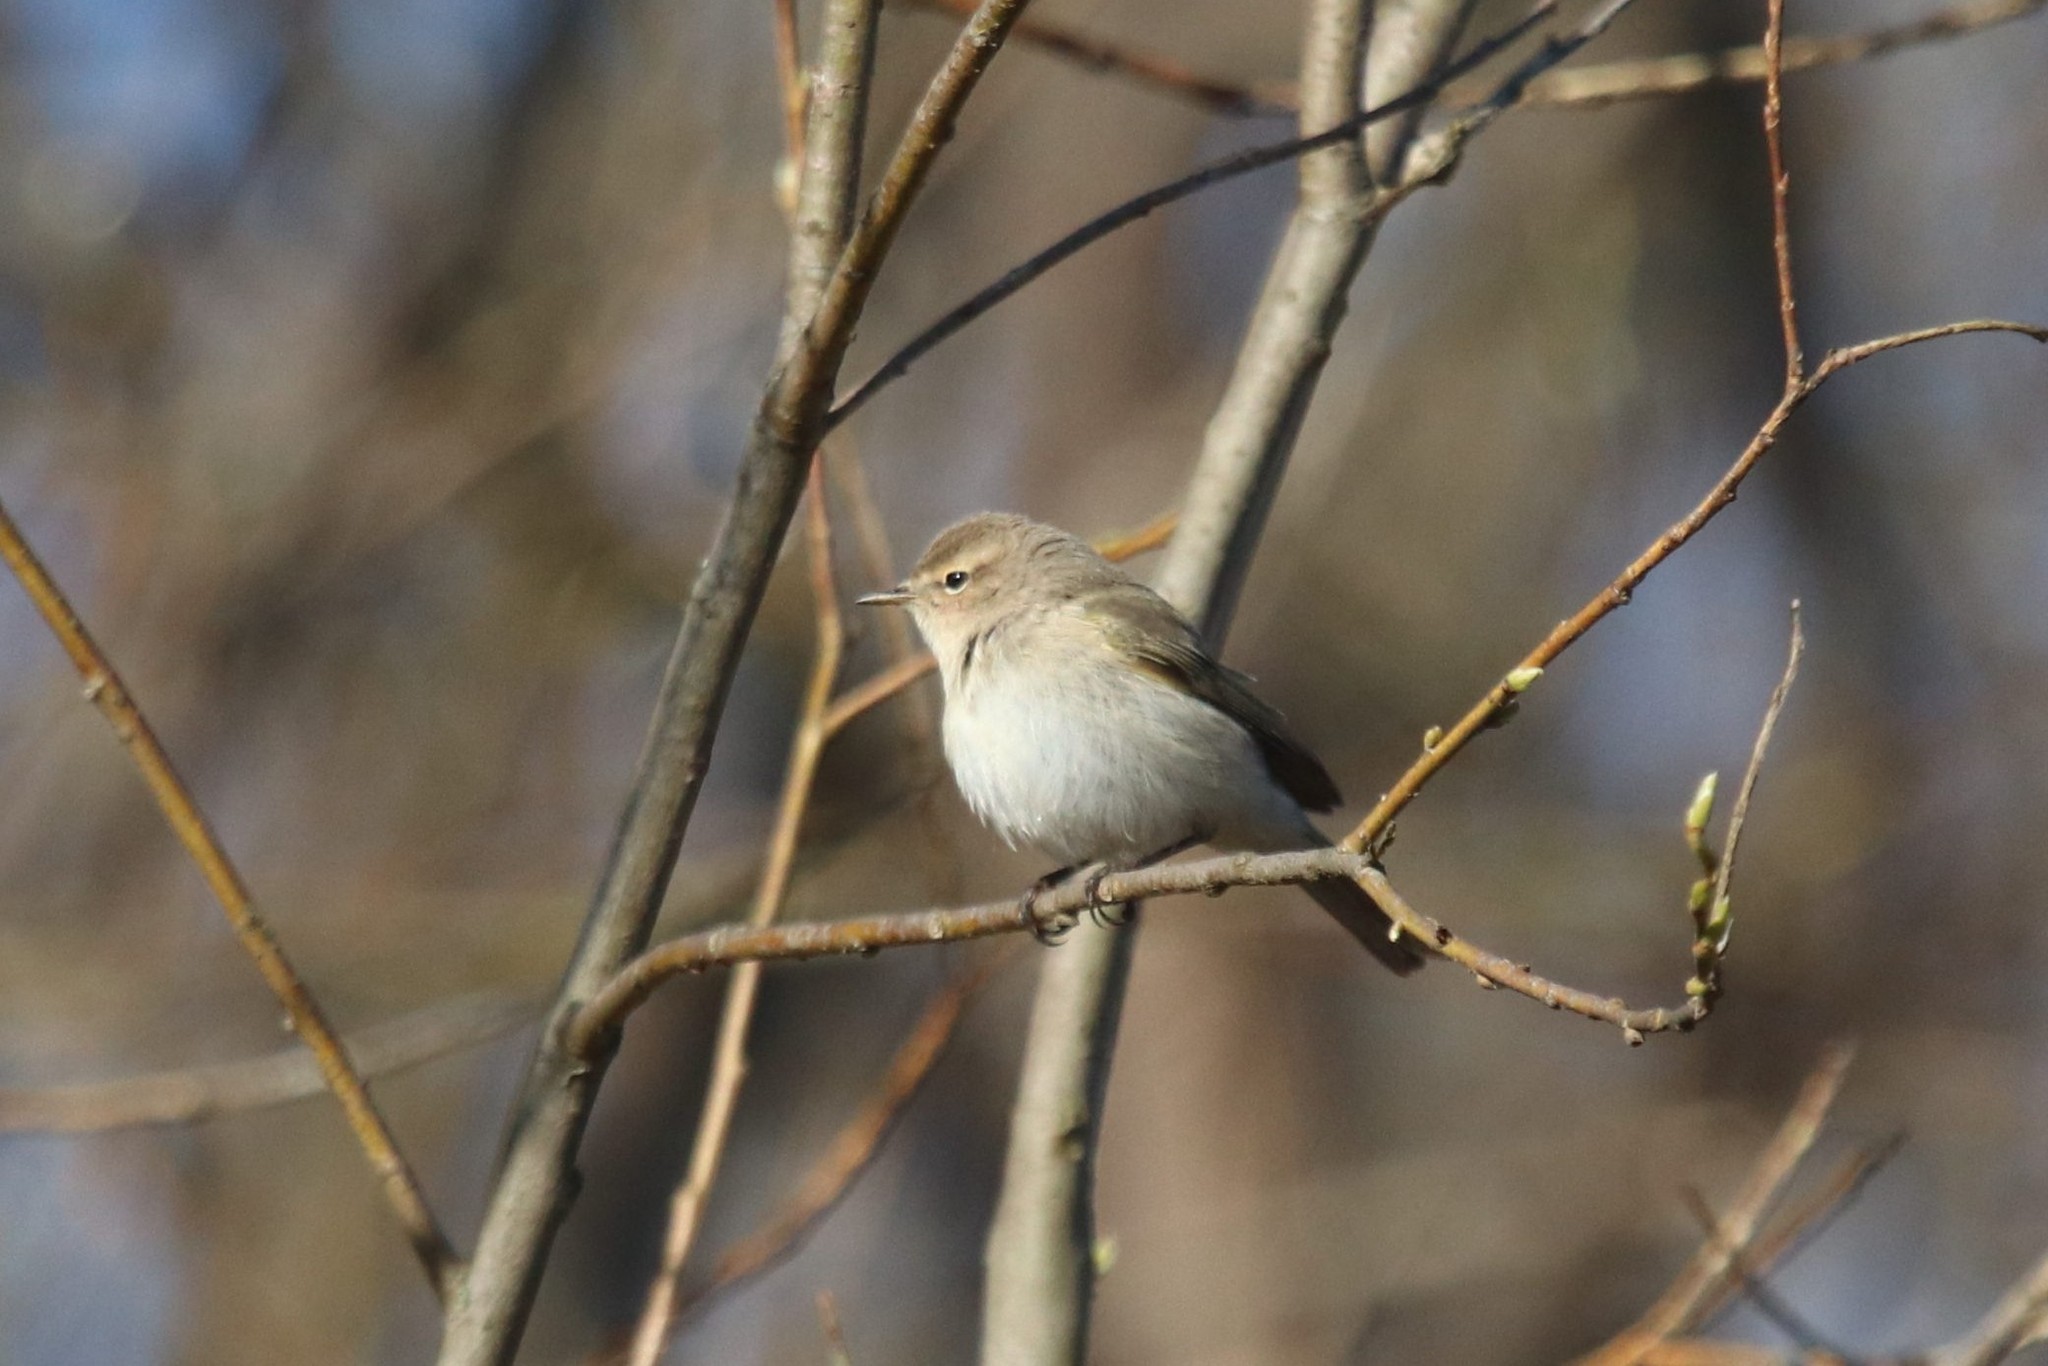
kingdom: Animalia
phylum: Chordata
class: Aves
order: Passeriformes
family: Phylloscopidae
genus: Phylloscopus
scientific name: Phylloscopus collybita
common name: Common chiffchaff
